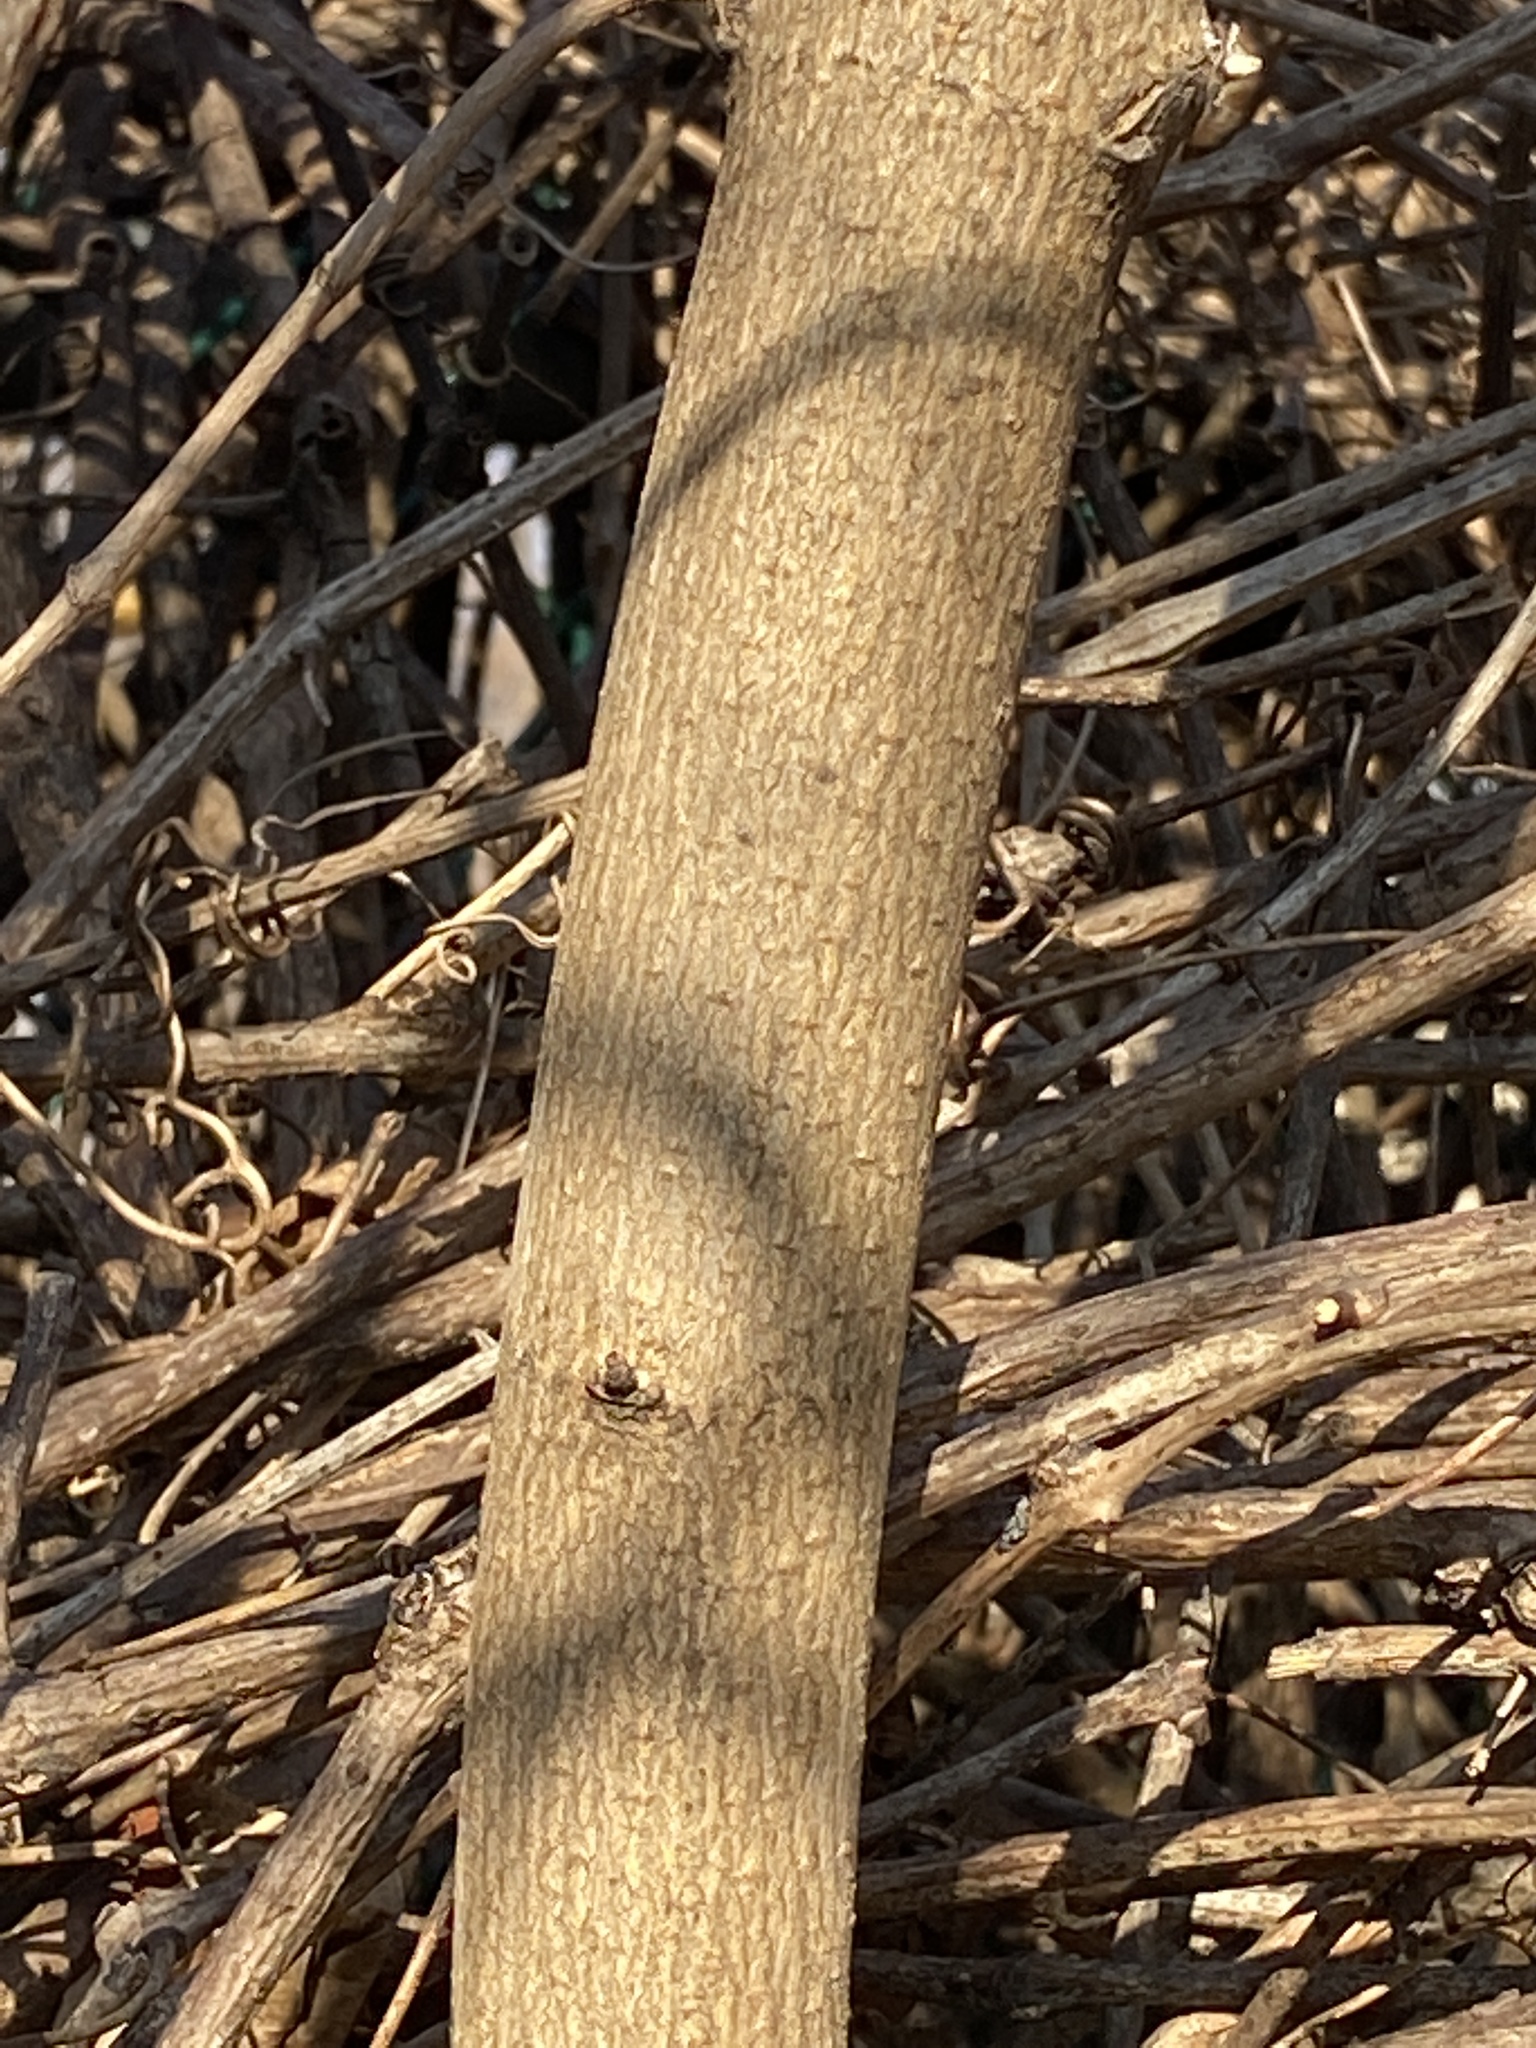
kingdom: Plantae
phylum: Tracheophyta
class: Magnoliopsida
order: Sapindales
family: Sapindaceae
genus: Acer
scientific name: Acer platanoides
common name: Norway maple
